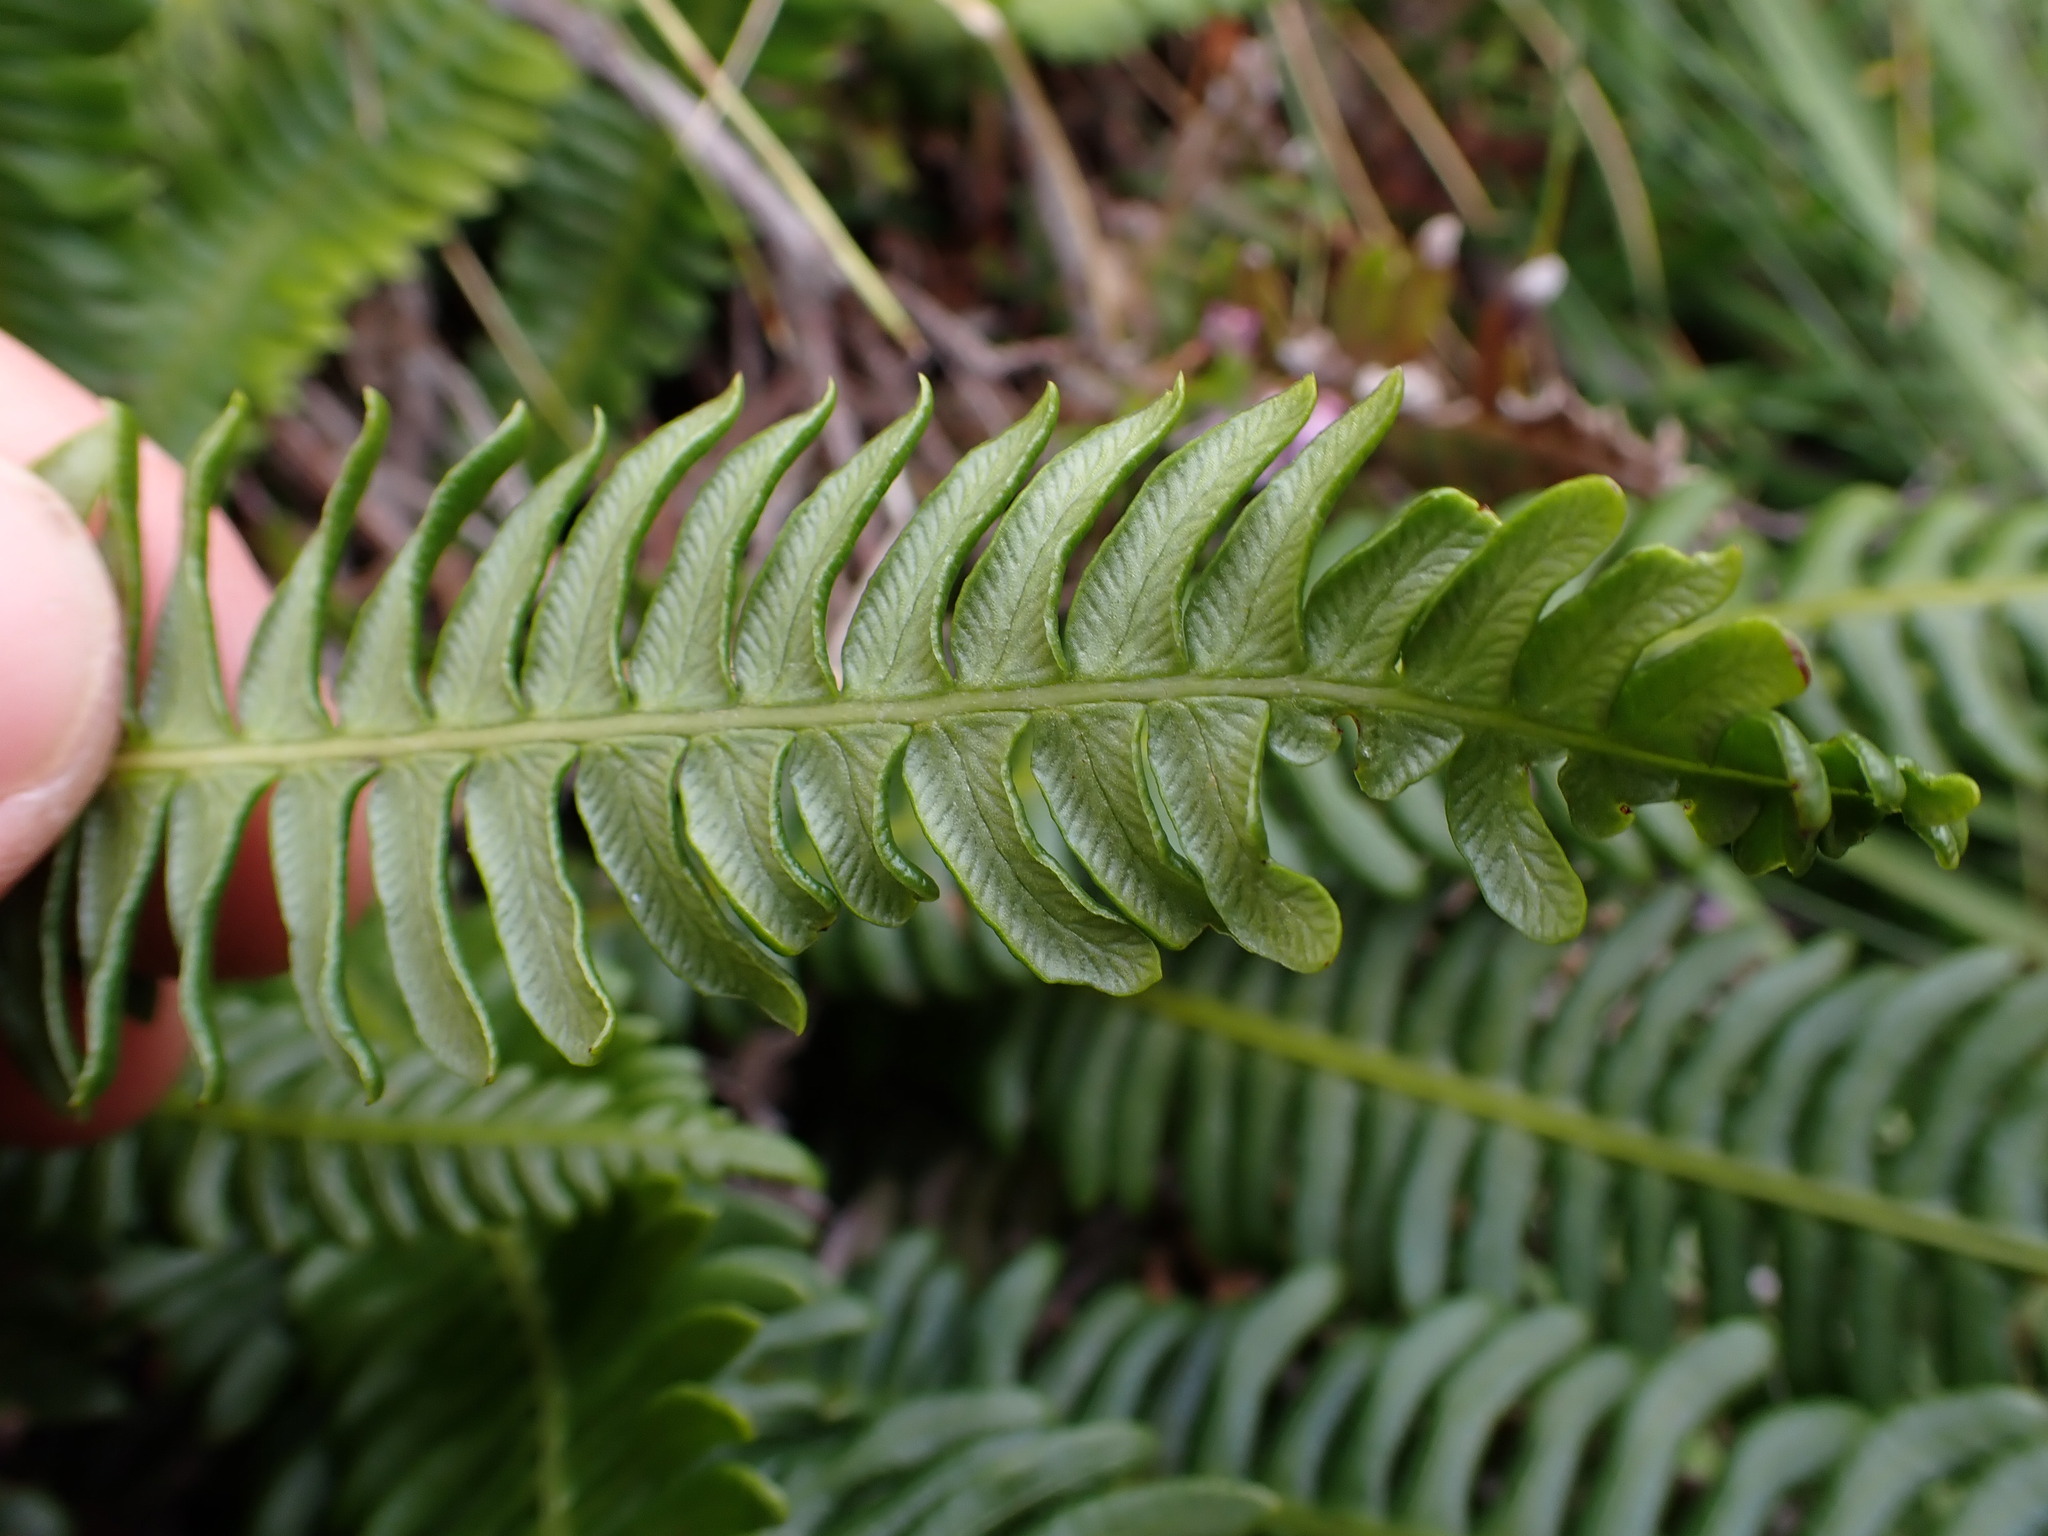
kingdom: Plantae
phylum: Tracheophyta
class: Polypodiopsida
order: Polypodiales
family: Blechnaceae
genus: Struthiopteris
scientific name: Struthiopteris spicant
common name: Deer fern
